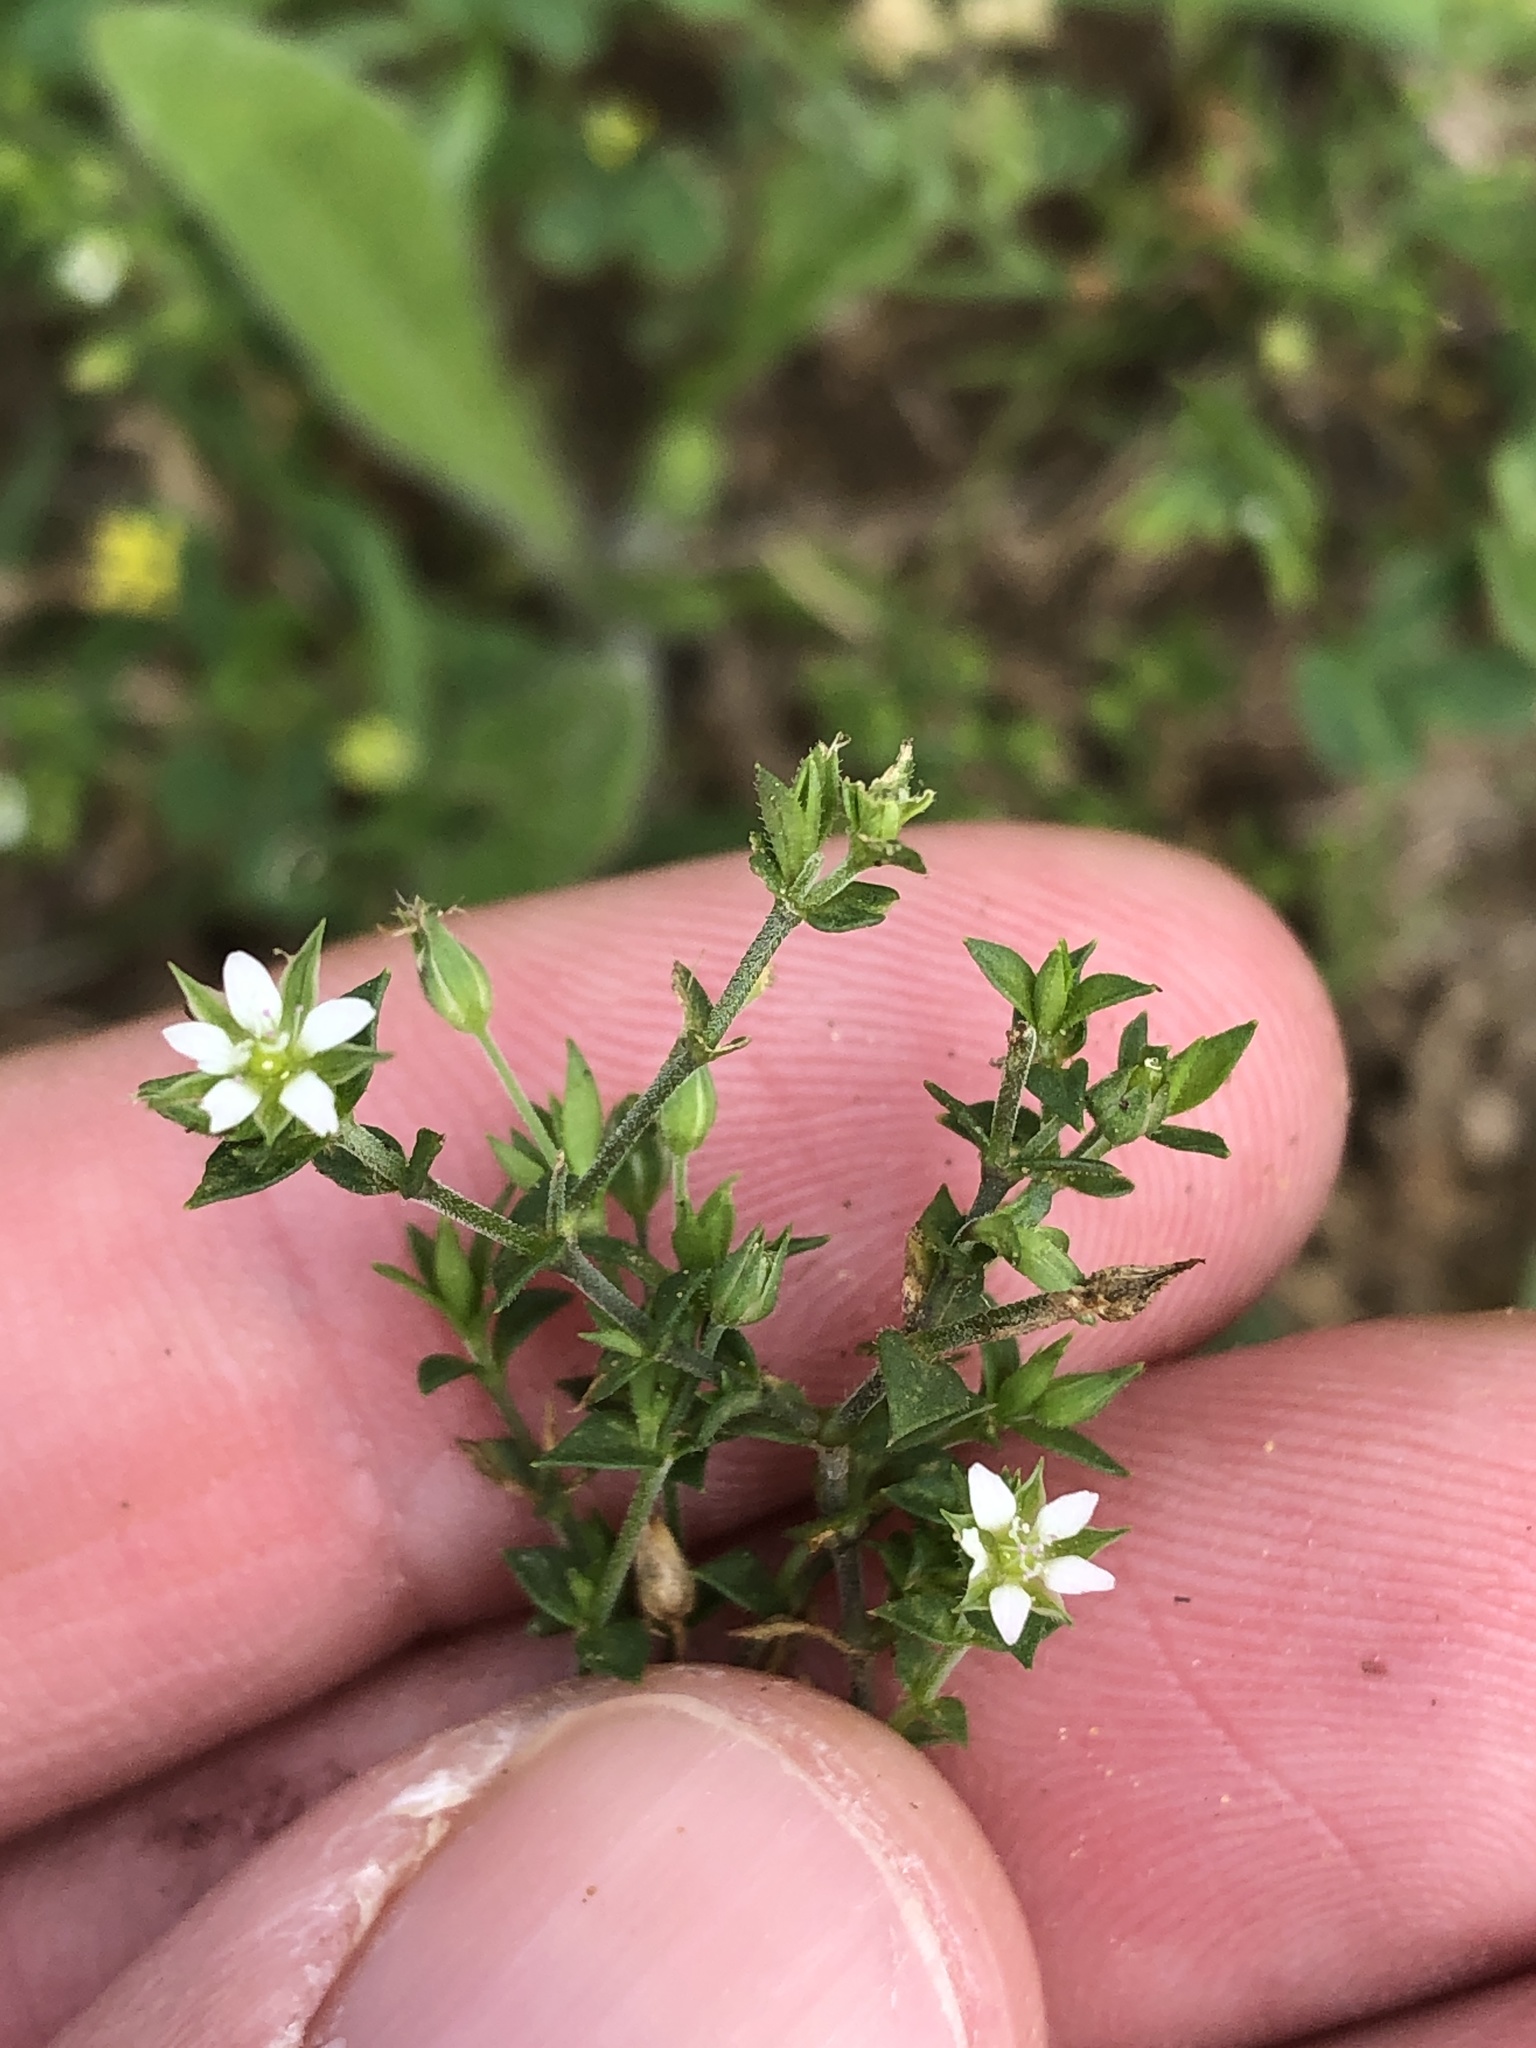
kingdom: Plantae
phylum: Tracheophyta
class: Magnoliopsida
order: Caryophyllales
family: Caryophyllaceae
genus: Arenaria
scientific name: Arenaria serpyllifolia
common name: Thyme-leaved sandwort
